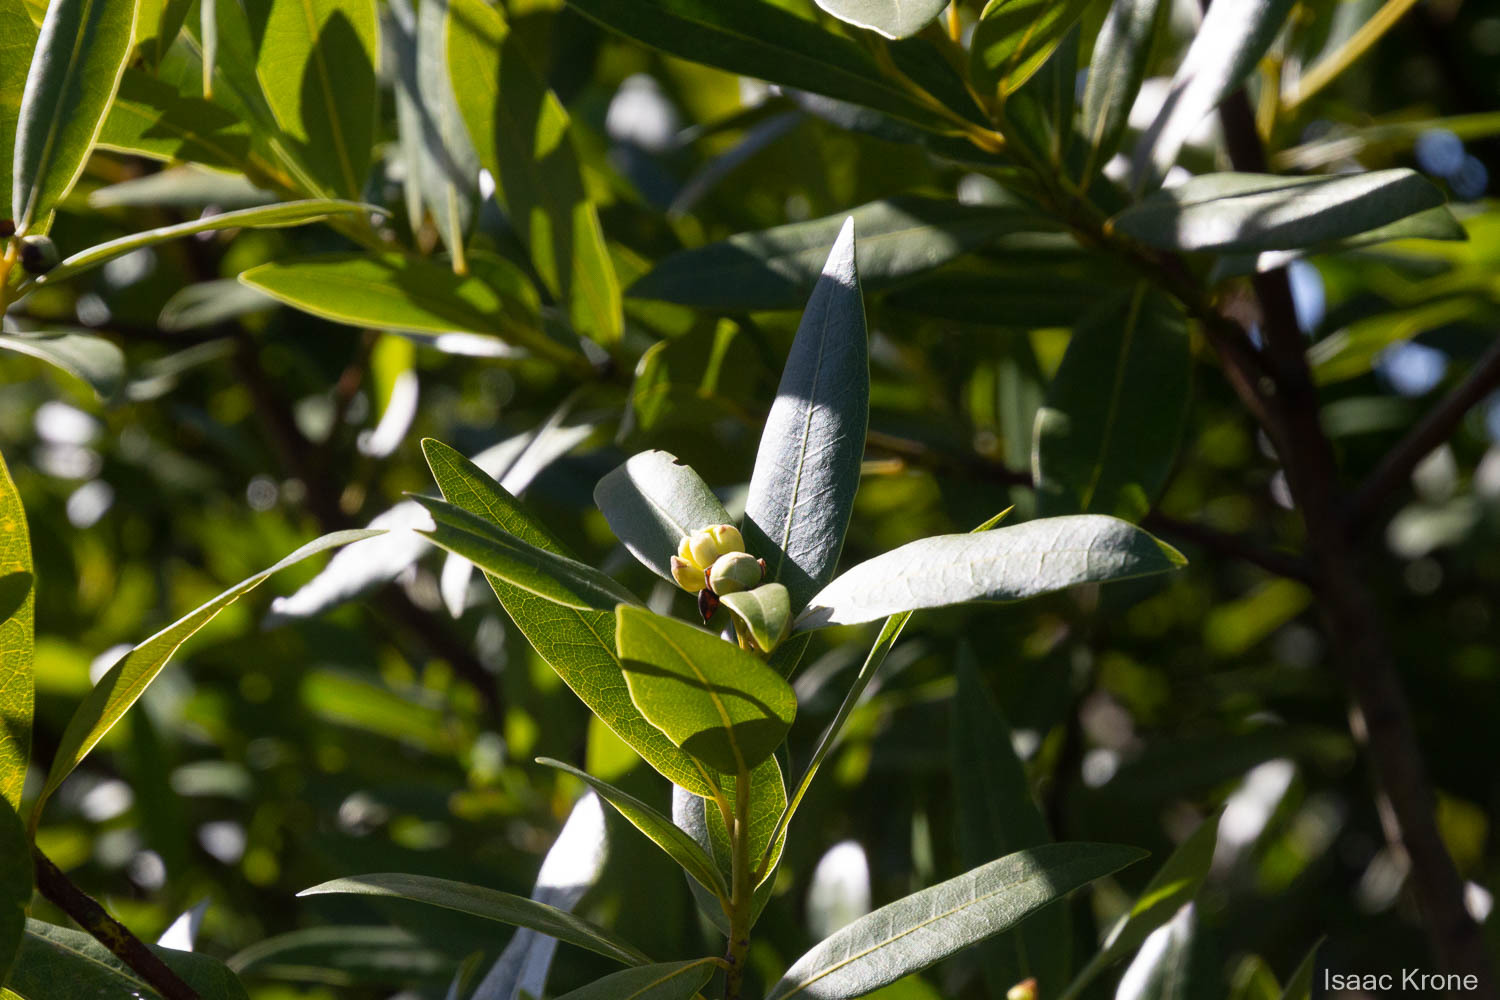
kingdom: Plantae
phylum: Tracheophyta
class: Magnoliopsida
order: Laurales
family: Lauraceae
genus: Umbellularia
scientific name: Umbellularia californica
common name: California bay
